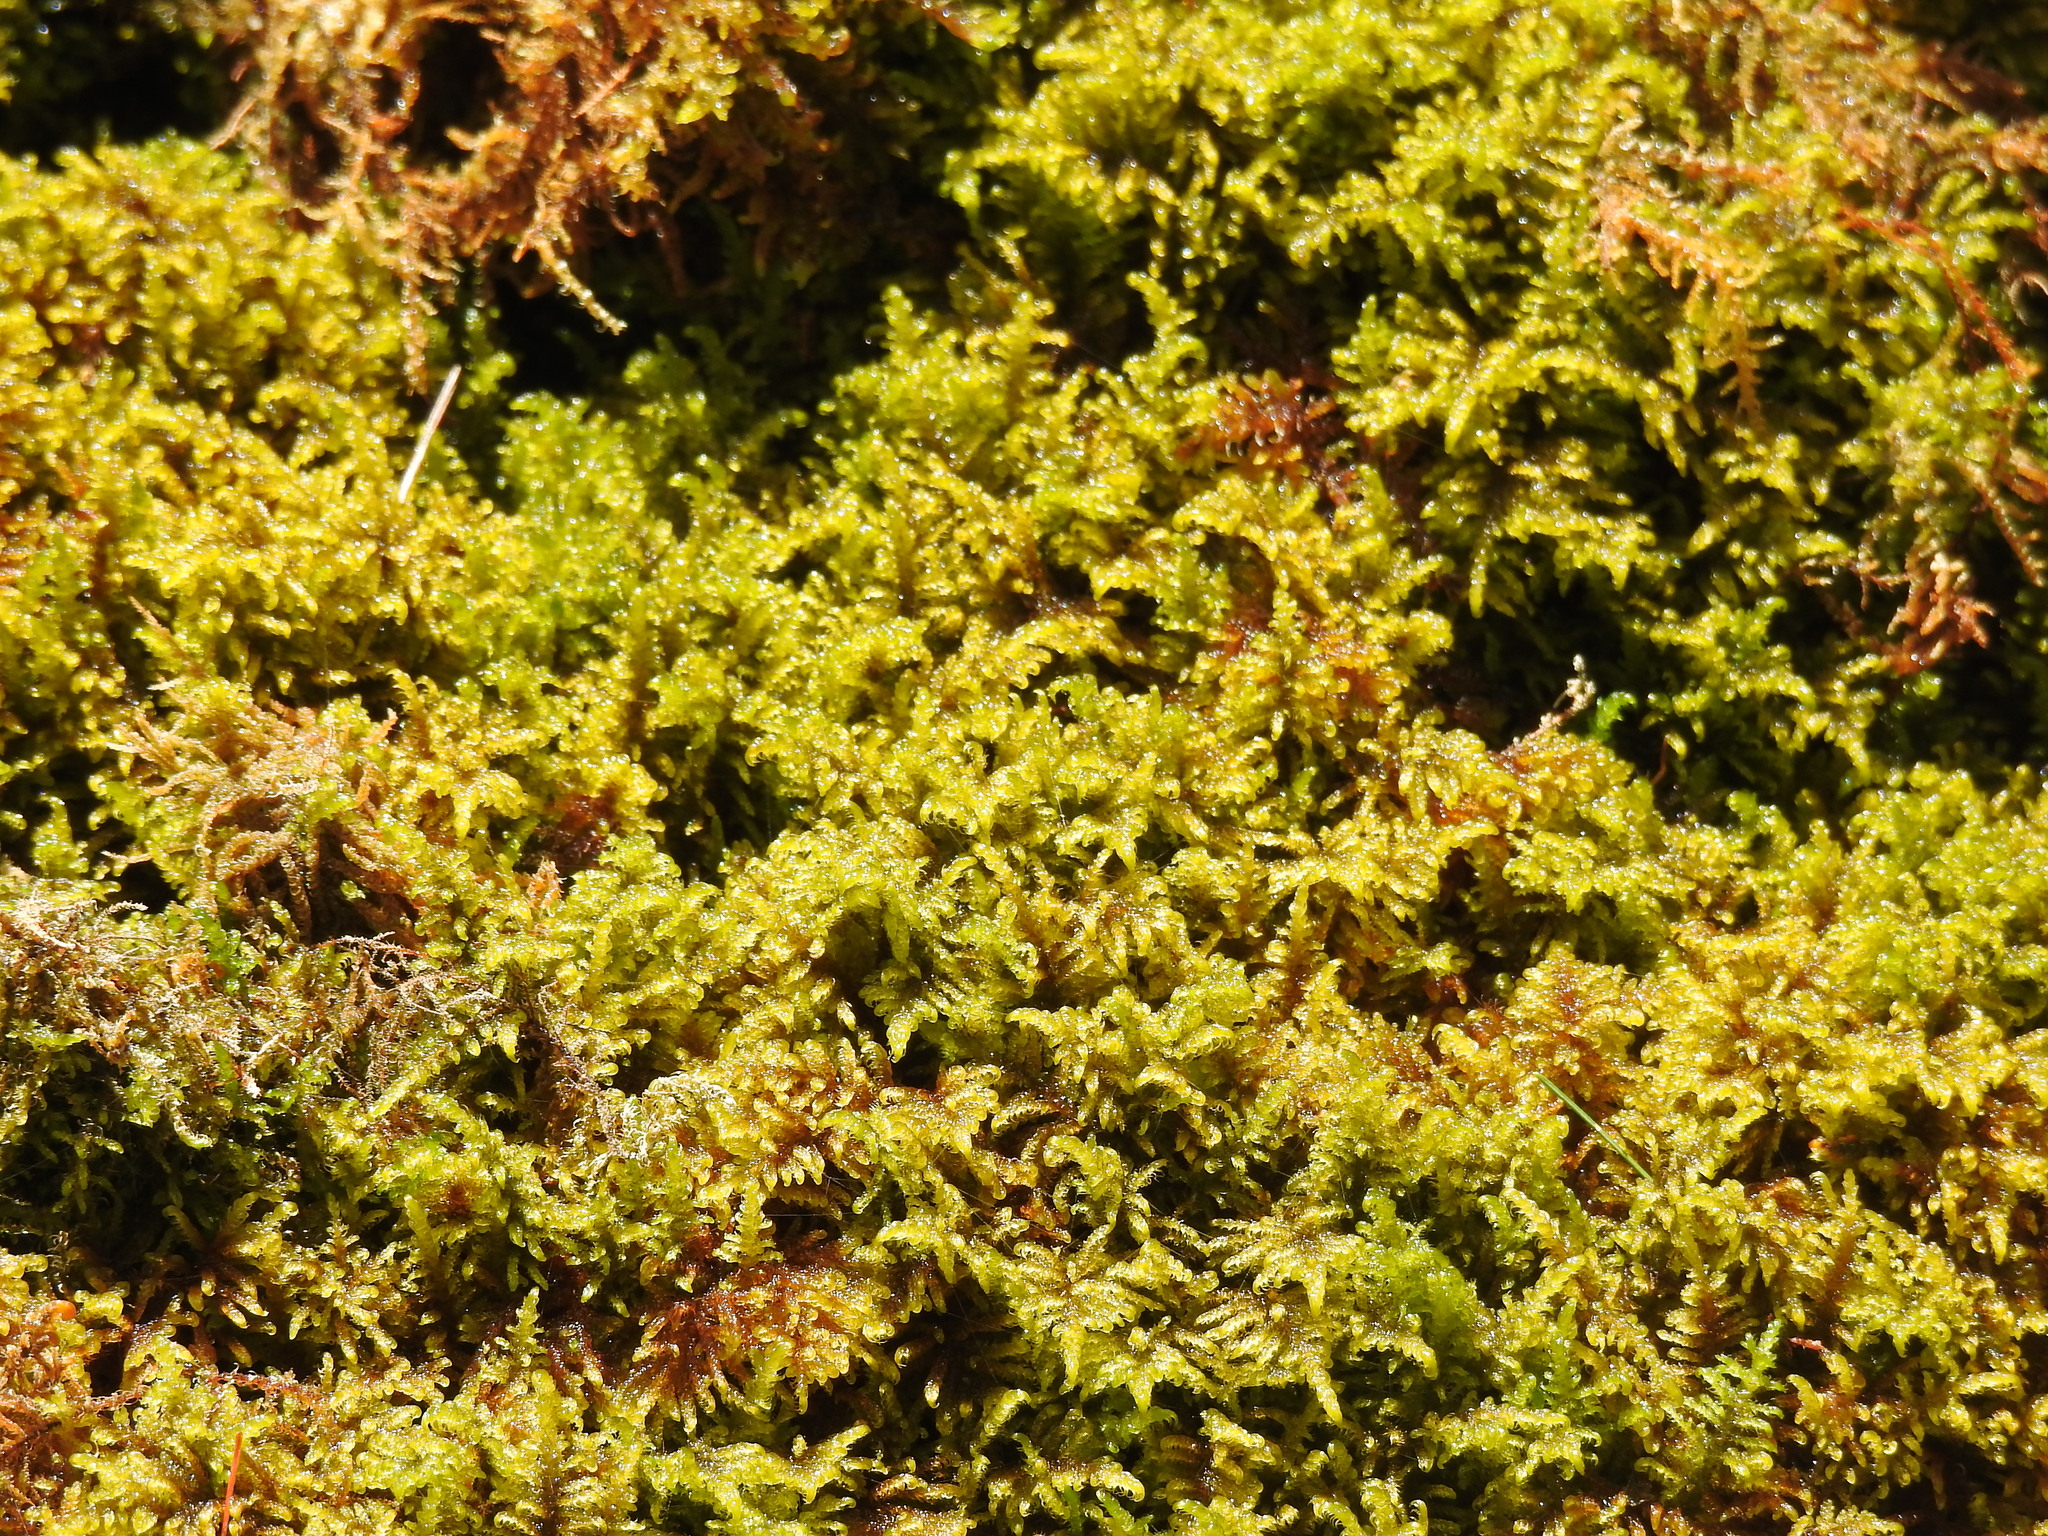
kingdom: Plantae
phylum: Bryophyta
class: Bryopsida
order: Hypnales
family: Amblystegiaceae
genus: Palustriella
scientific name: Palustriella commutata
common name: Curled hook-moss
